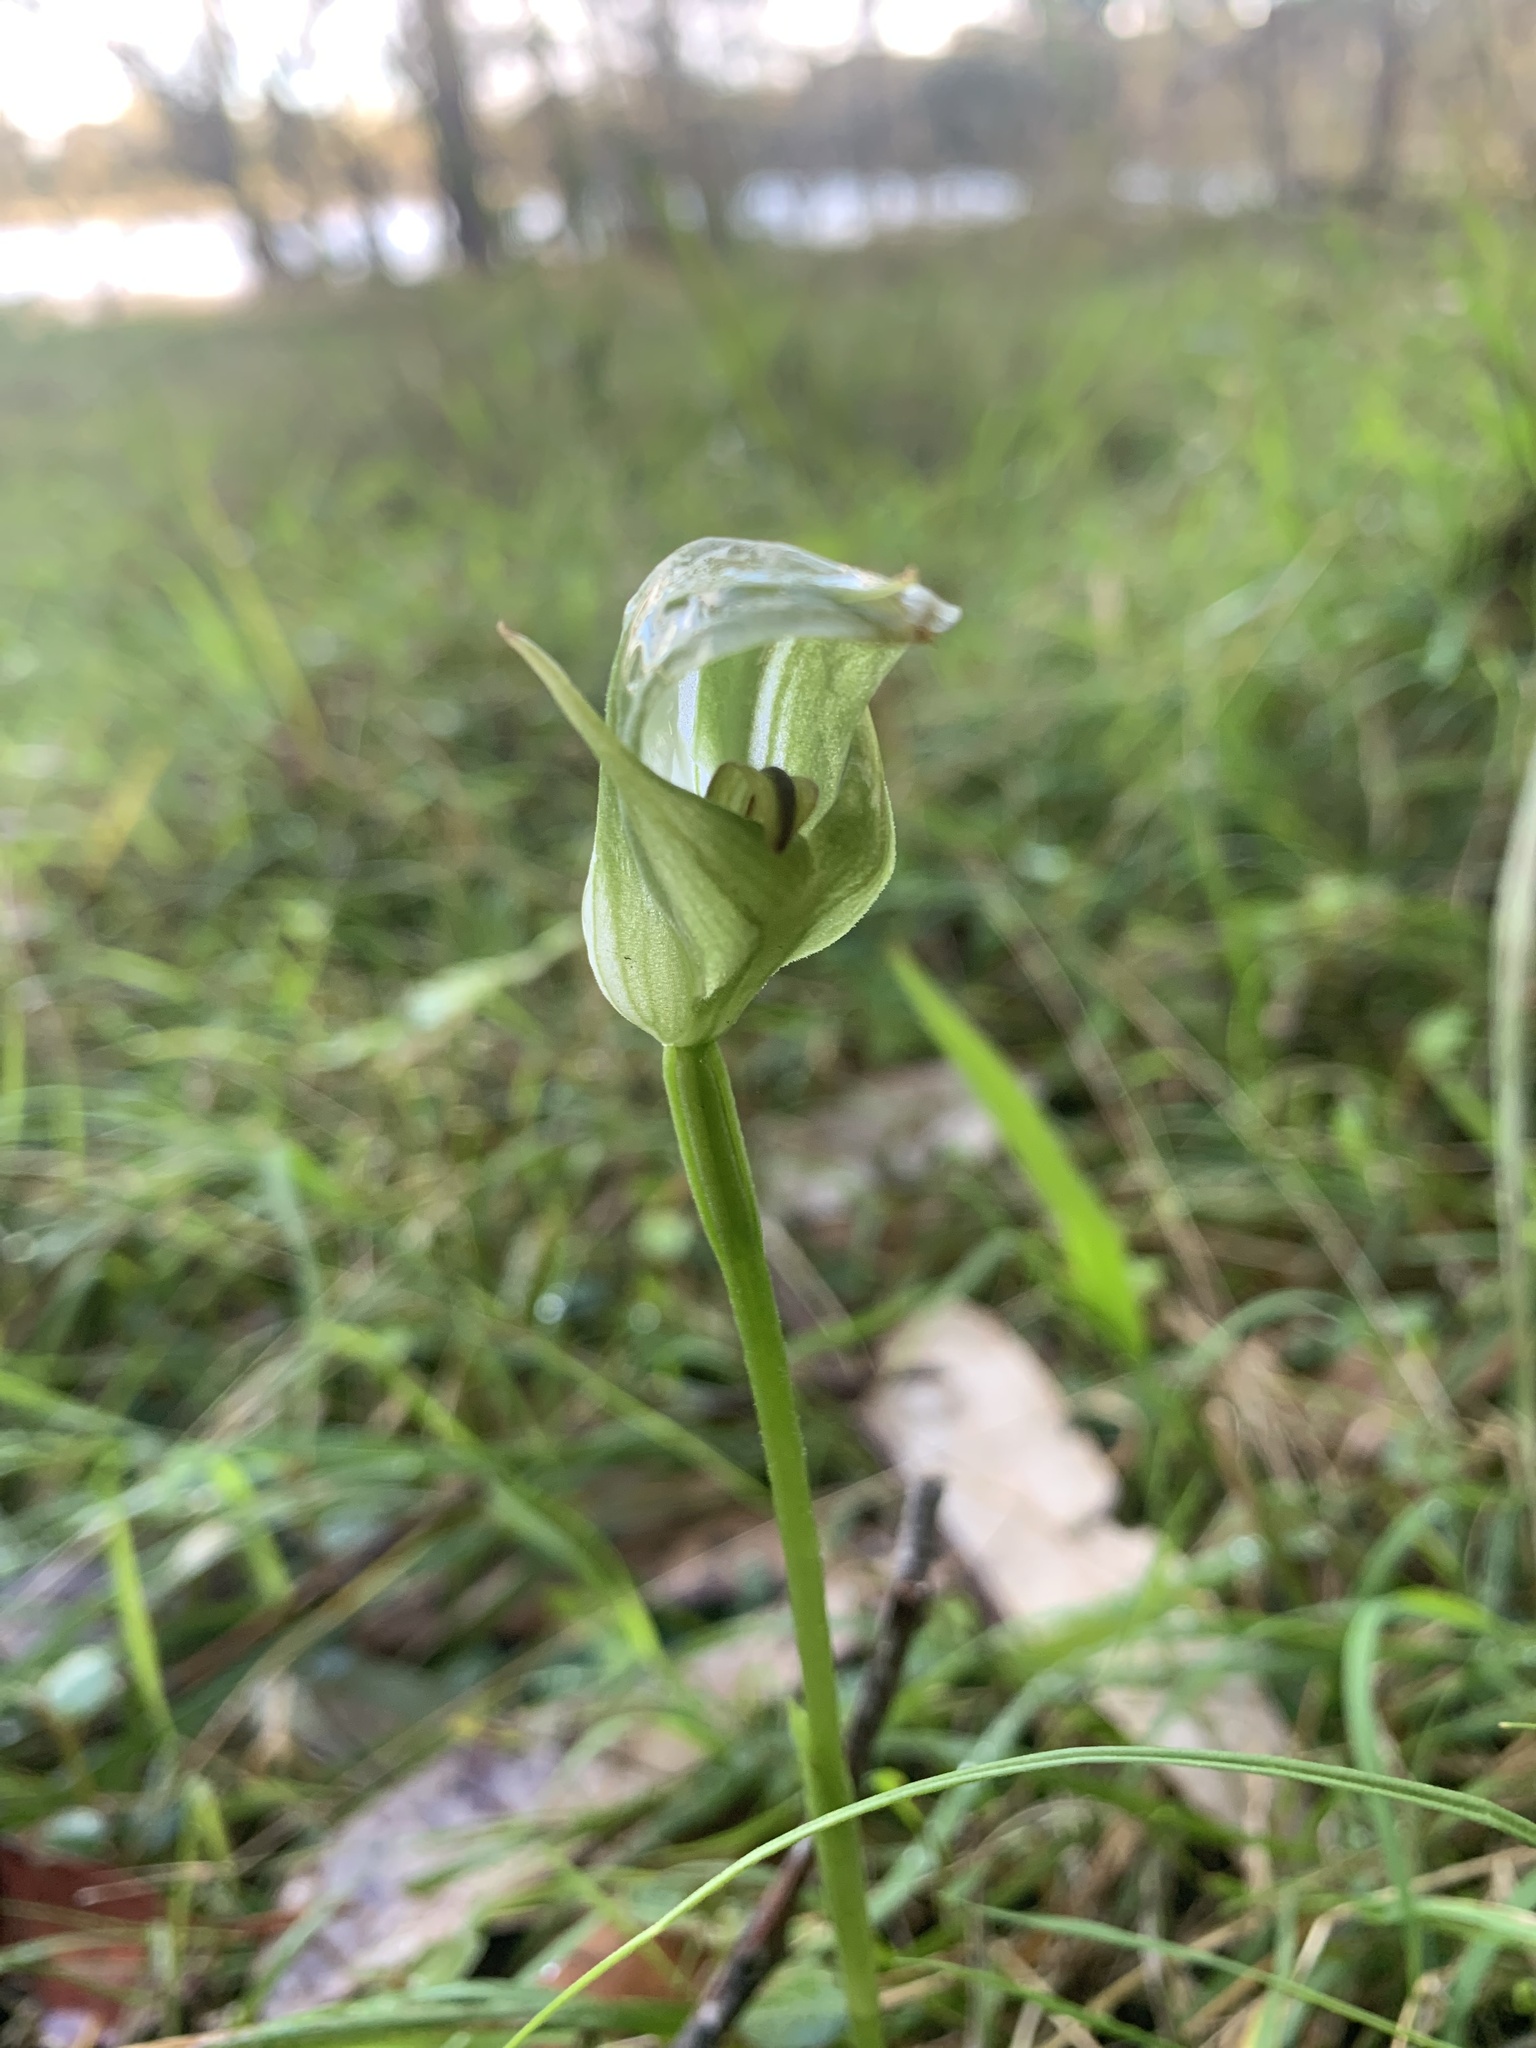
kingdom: Plantae
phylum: Tracheophyta
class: Liliopsida
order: Asparagales
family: Orchidaceae
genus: Pterostylis
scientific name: Pterostylis curta
